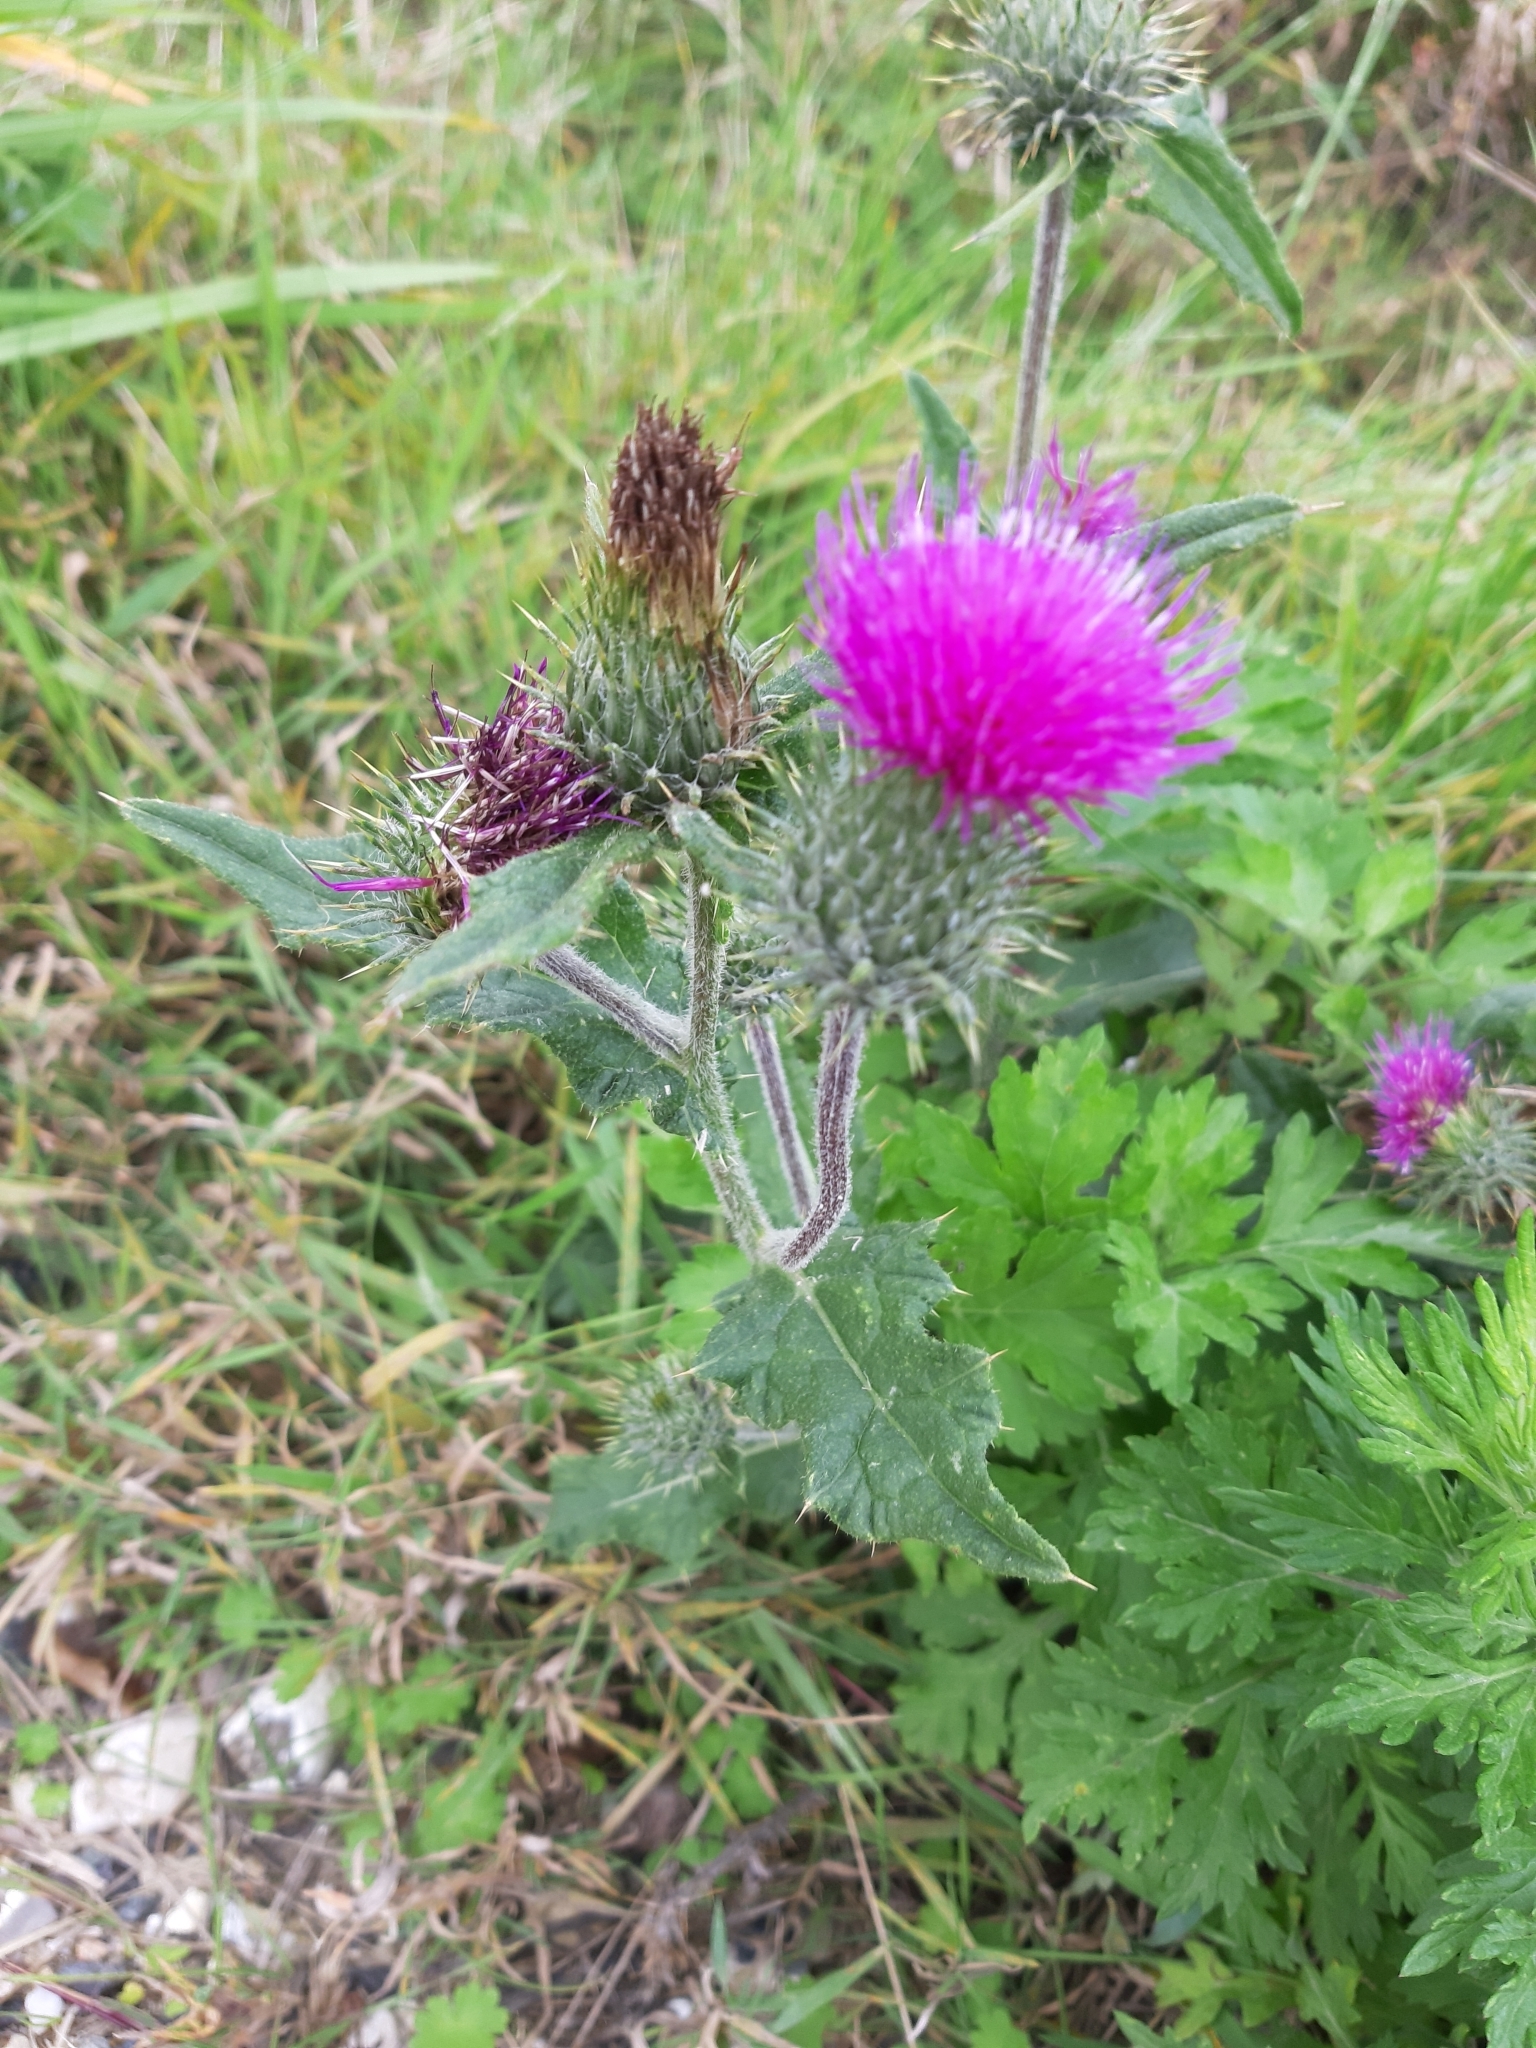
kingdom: Plantae
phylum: Tracheophyta
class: Magnoliopsida
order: Asterales
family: Asteraceae
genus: Cirsium
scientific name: Cirsium vulgare
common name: Bull thistle
